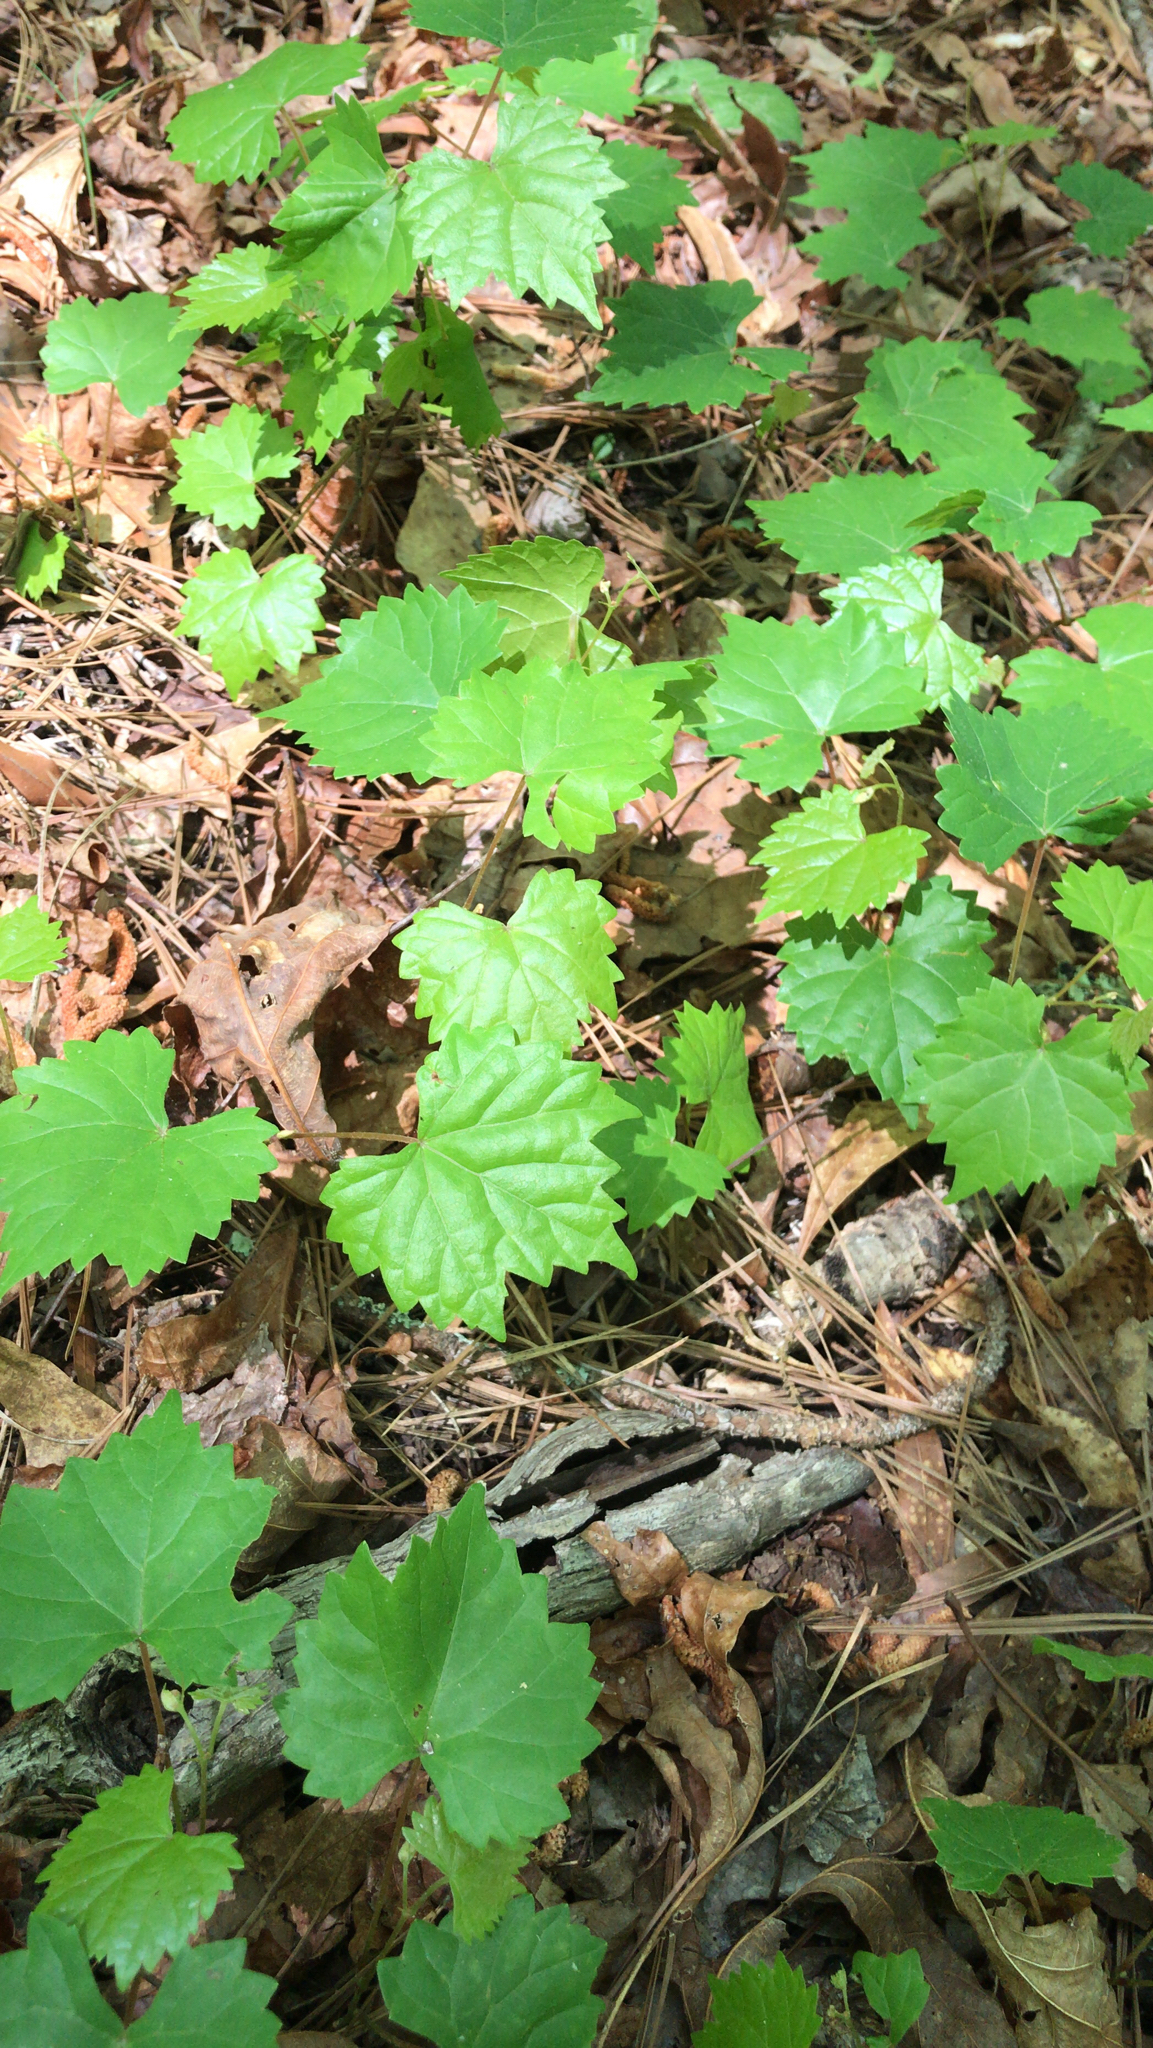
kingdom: Plantae
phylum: Tracheophyta
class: Magnoliopsida
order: Vitales
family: Vitaceae
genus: Vitis
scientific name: Vitis rotundifolia
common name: Muscadine grape
